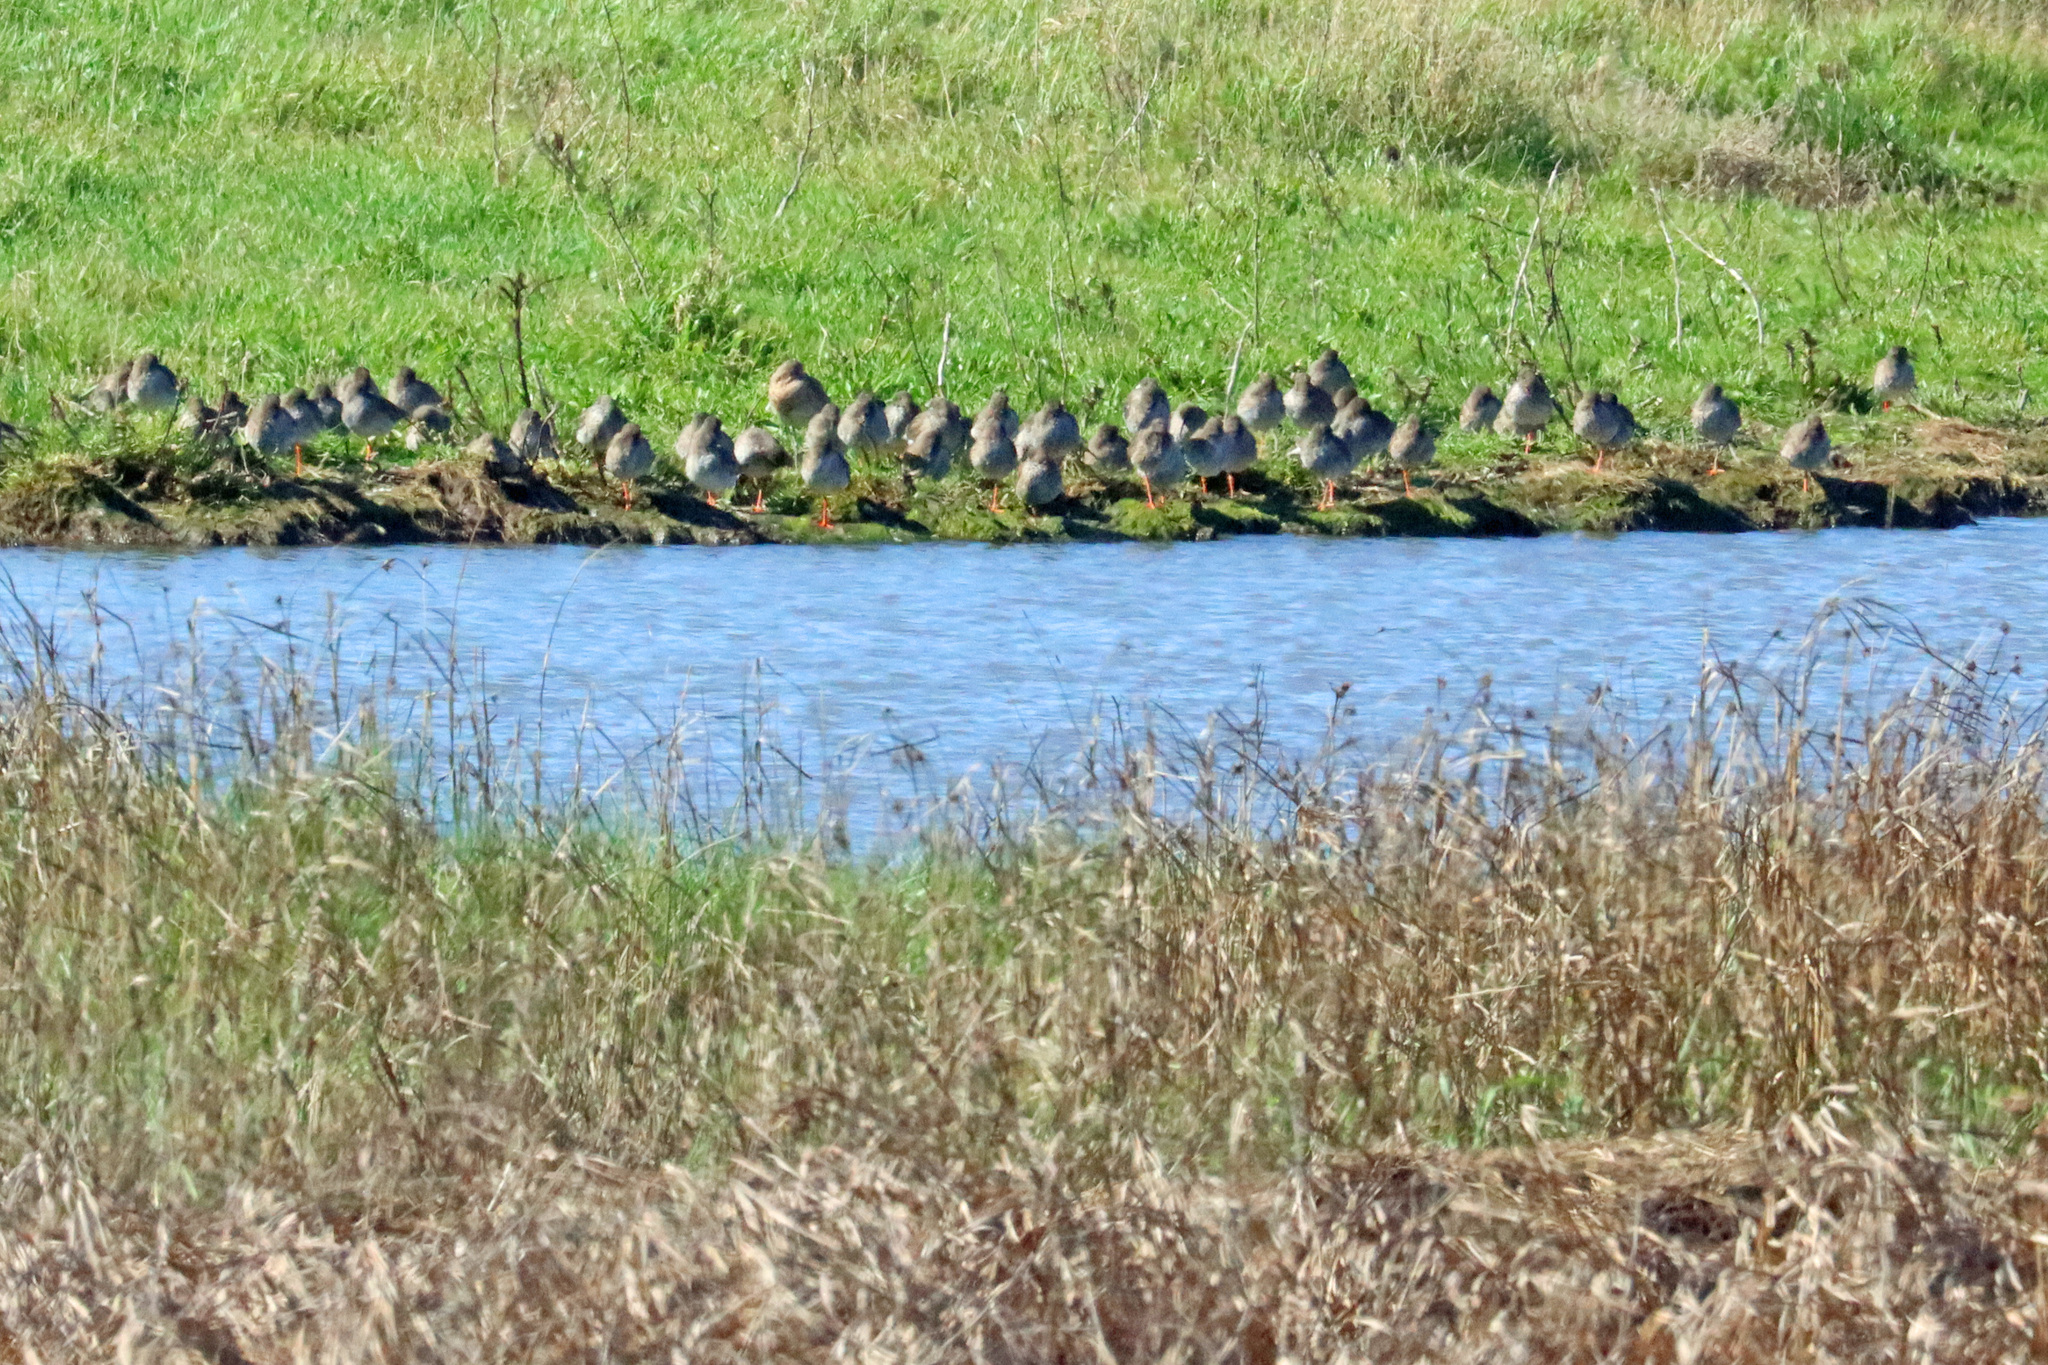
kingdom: Animalia
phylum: Chordata
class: Aves
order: Charadriiformes
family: Scolopacidae
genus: Tringa
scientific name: Tringa totanus
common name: Common redshank
